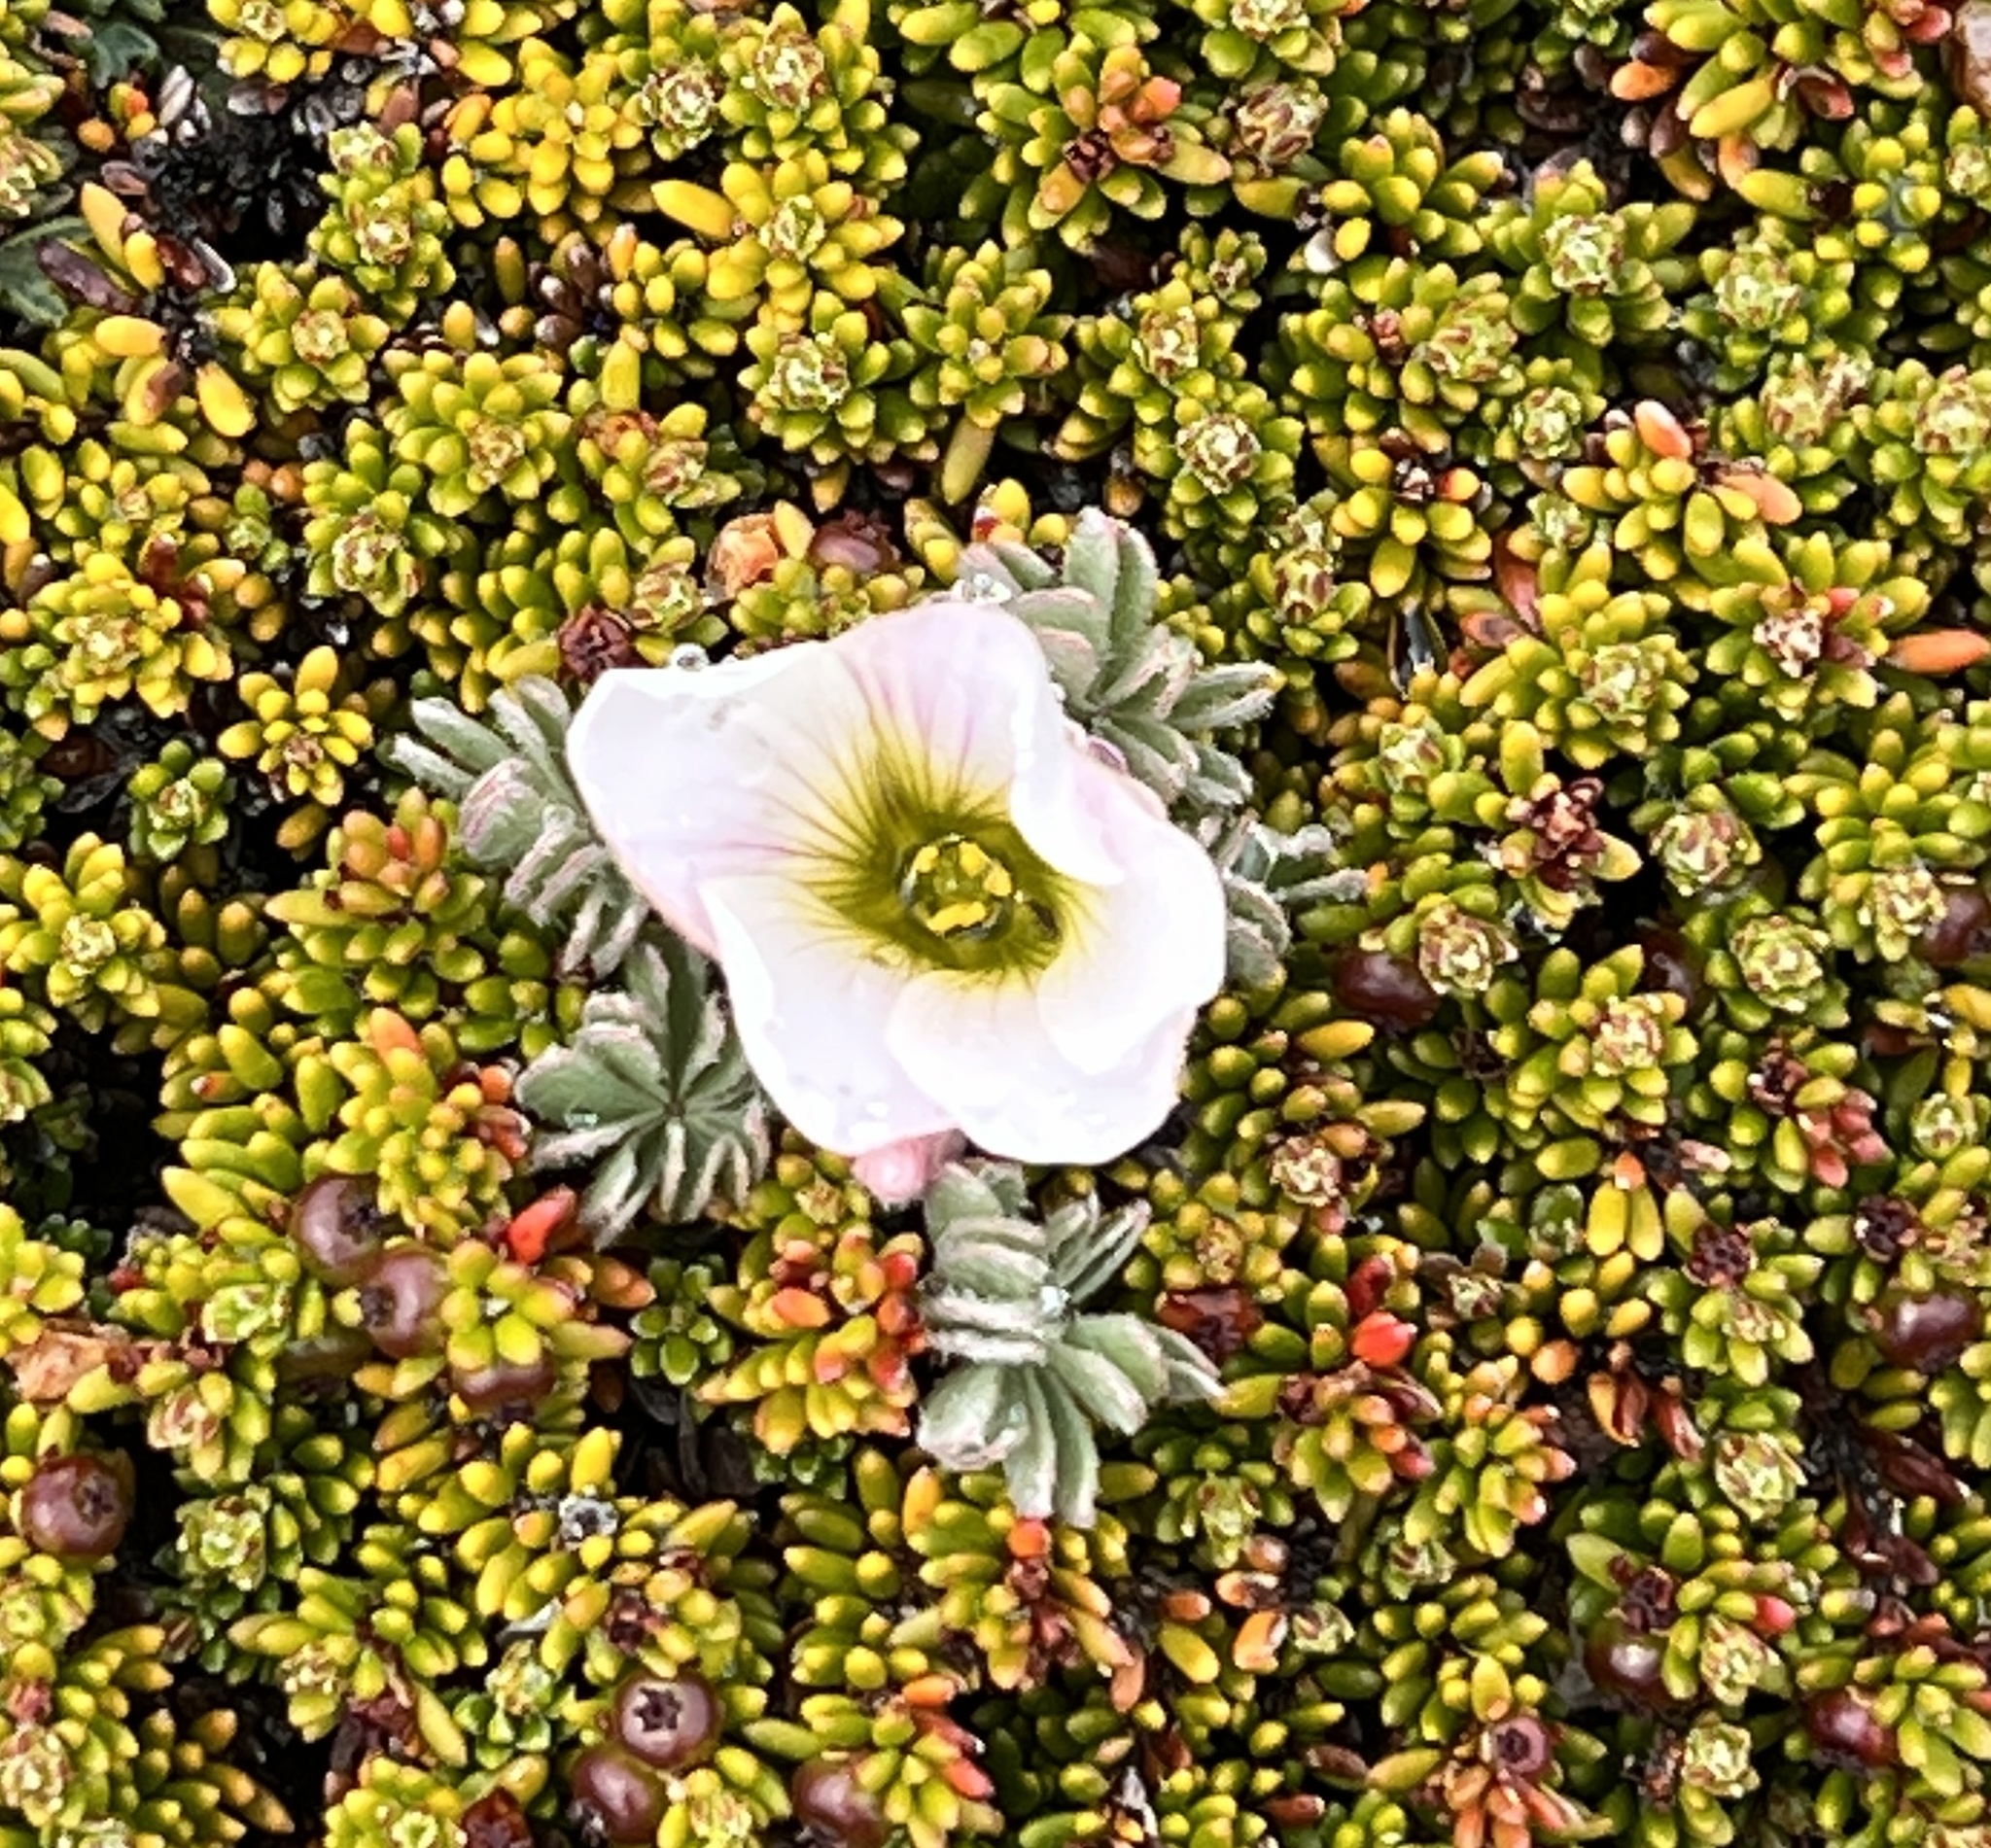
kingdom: Plantae
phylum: Tracheophyta
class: Magnoliopsida
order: Oxalidales
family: Oxalidaceae
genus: Oxalis
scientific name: Oxalis enneaphylla
